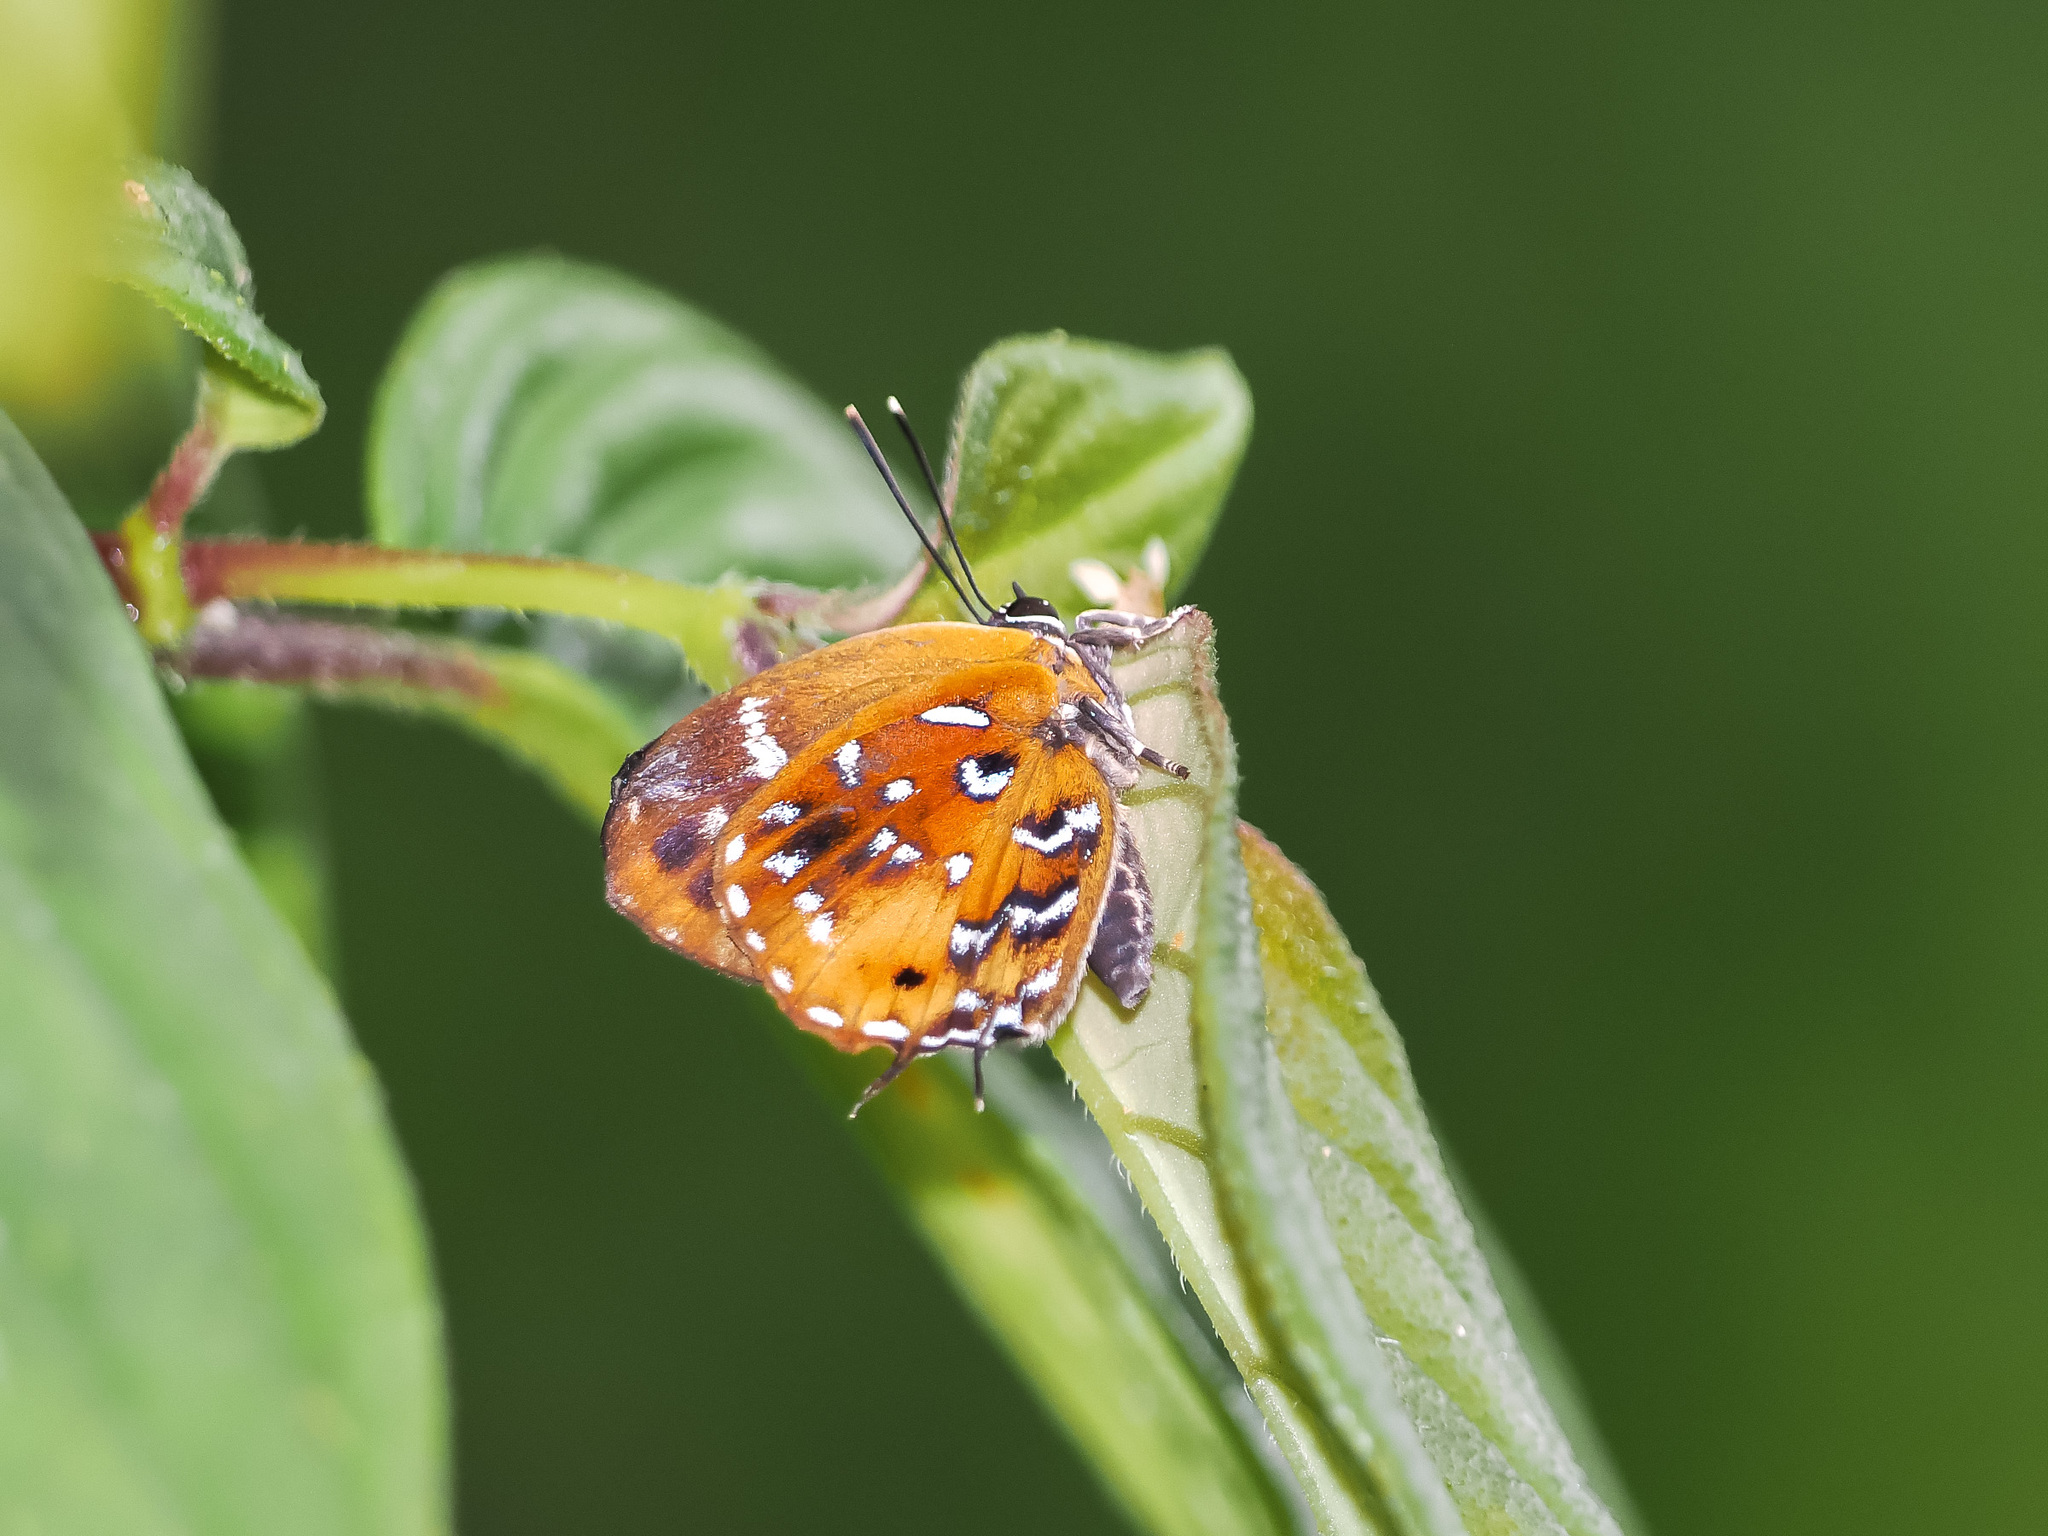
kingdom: Animalia
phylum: Arthropoda
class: Insecta
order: Lepidoptera
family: Lycaenidae
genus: Iraota
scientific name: Iraota
